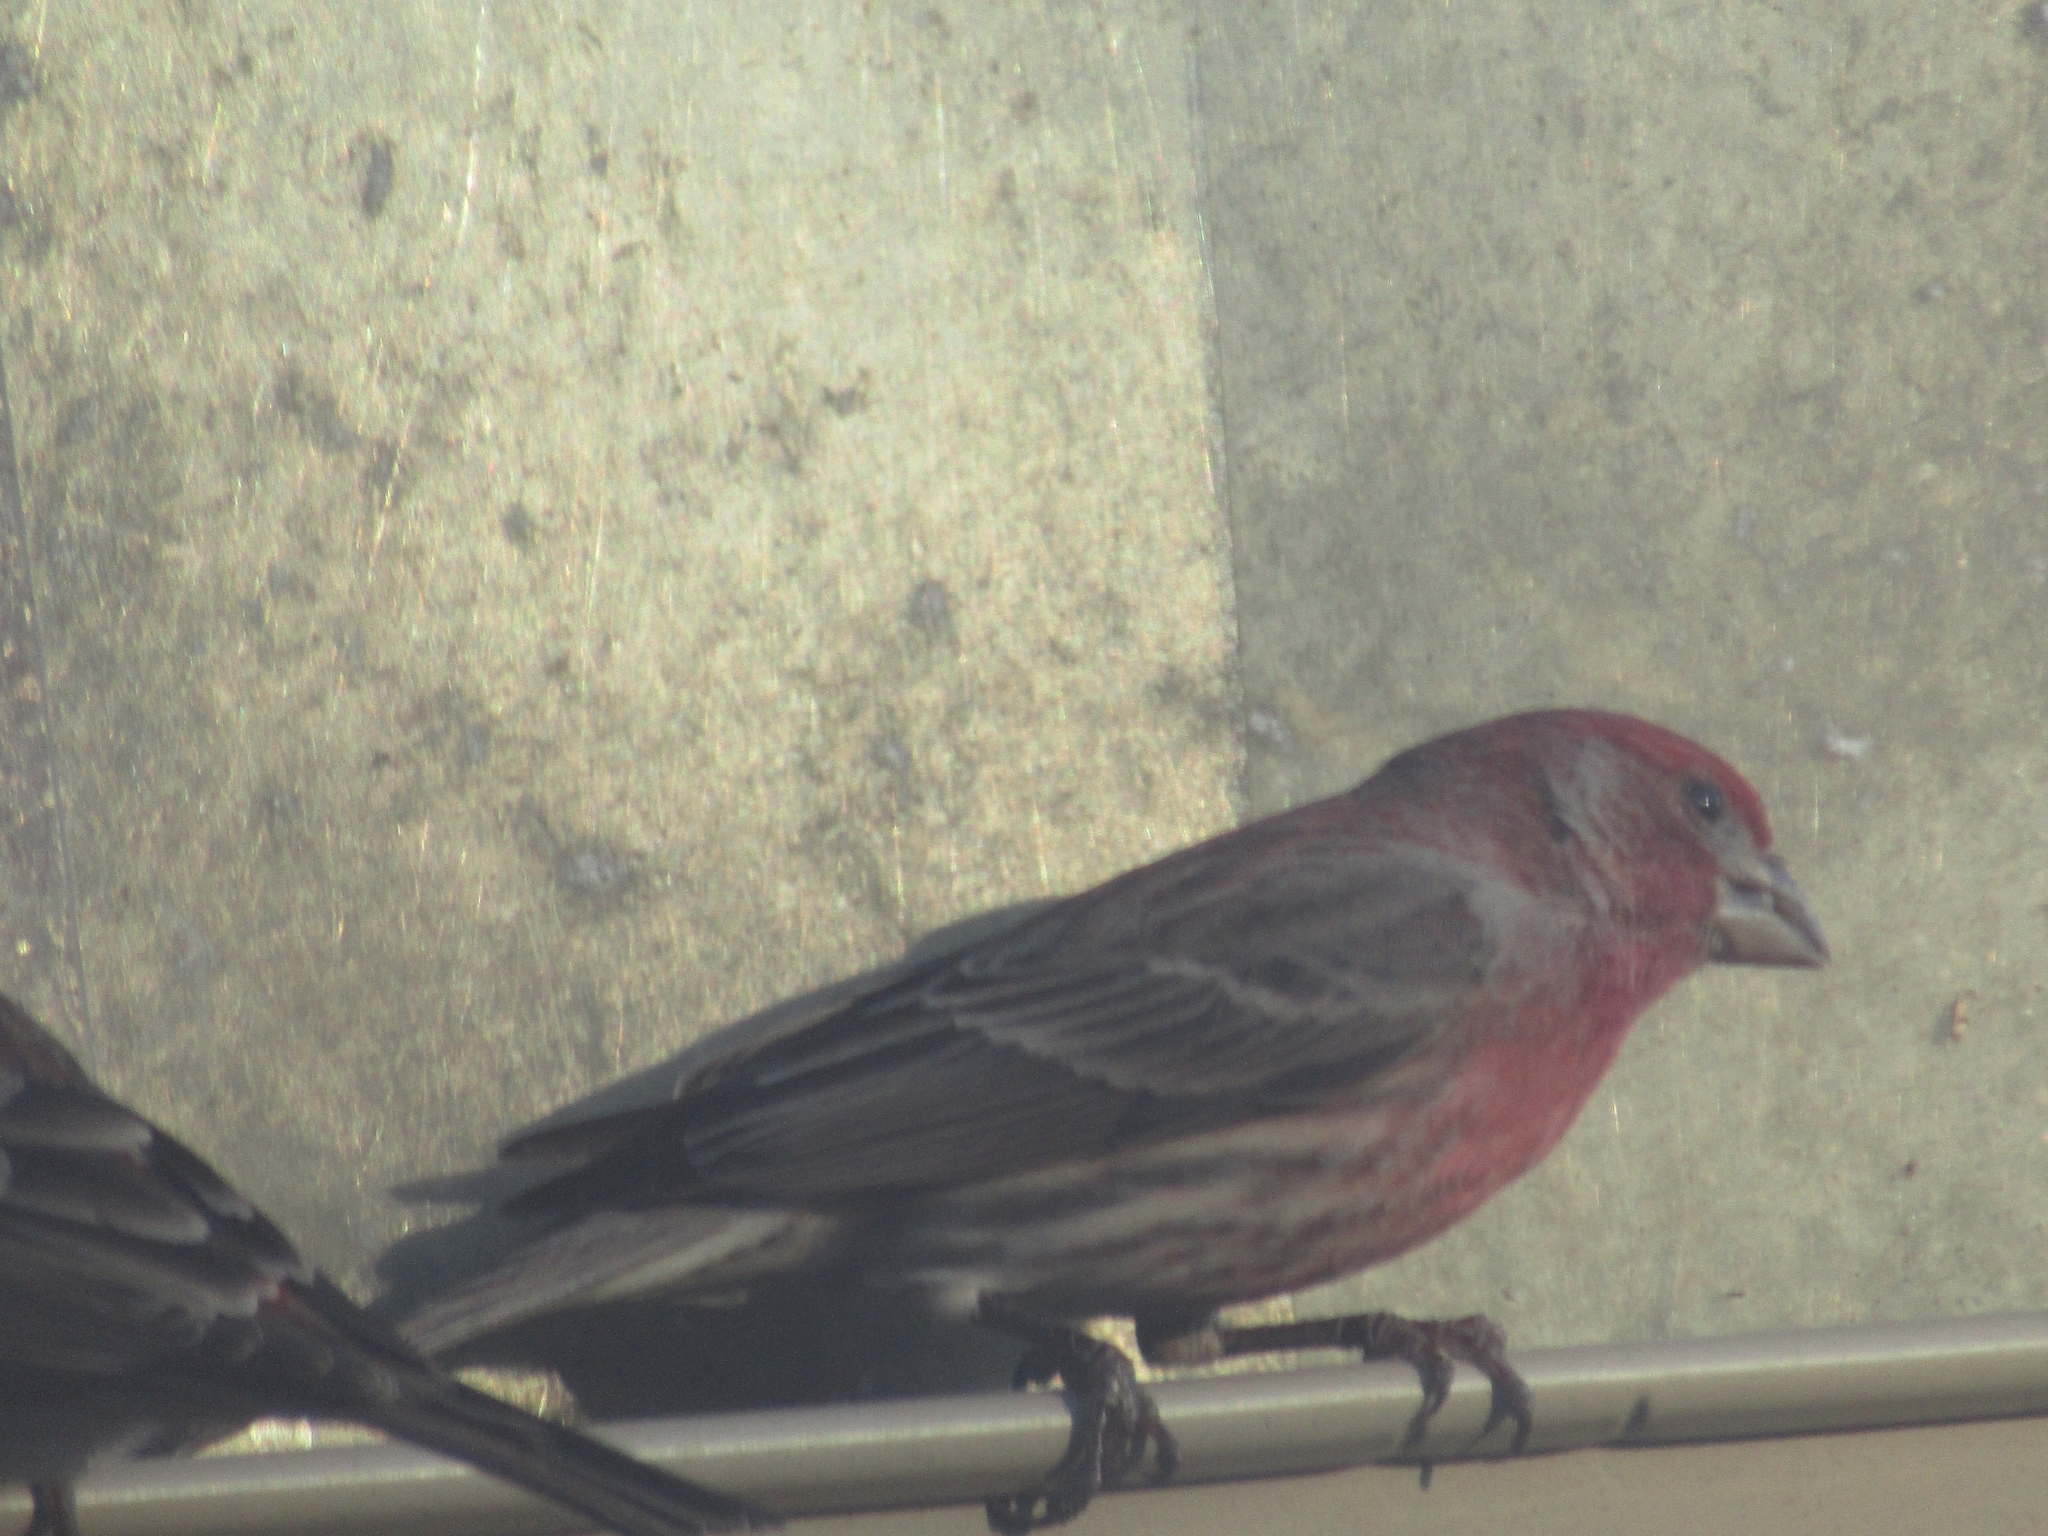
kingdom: Animalia
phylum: Chordata
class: Aves
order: Passeriformes
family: Fringillidae
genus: Haemorhous
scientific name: Haemorhous mexicanus
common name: House finch
